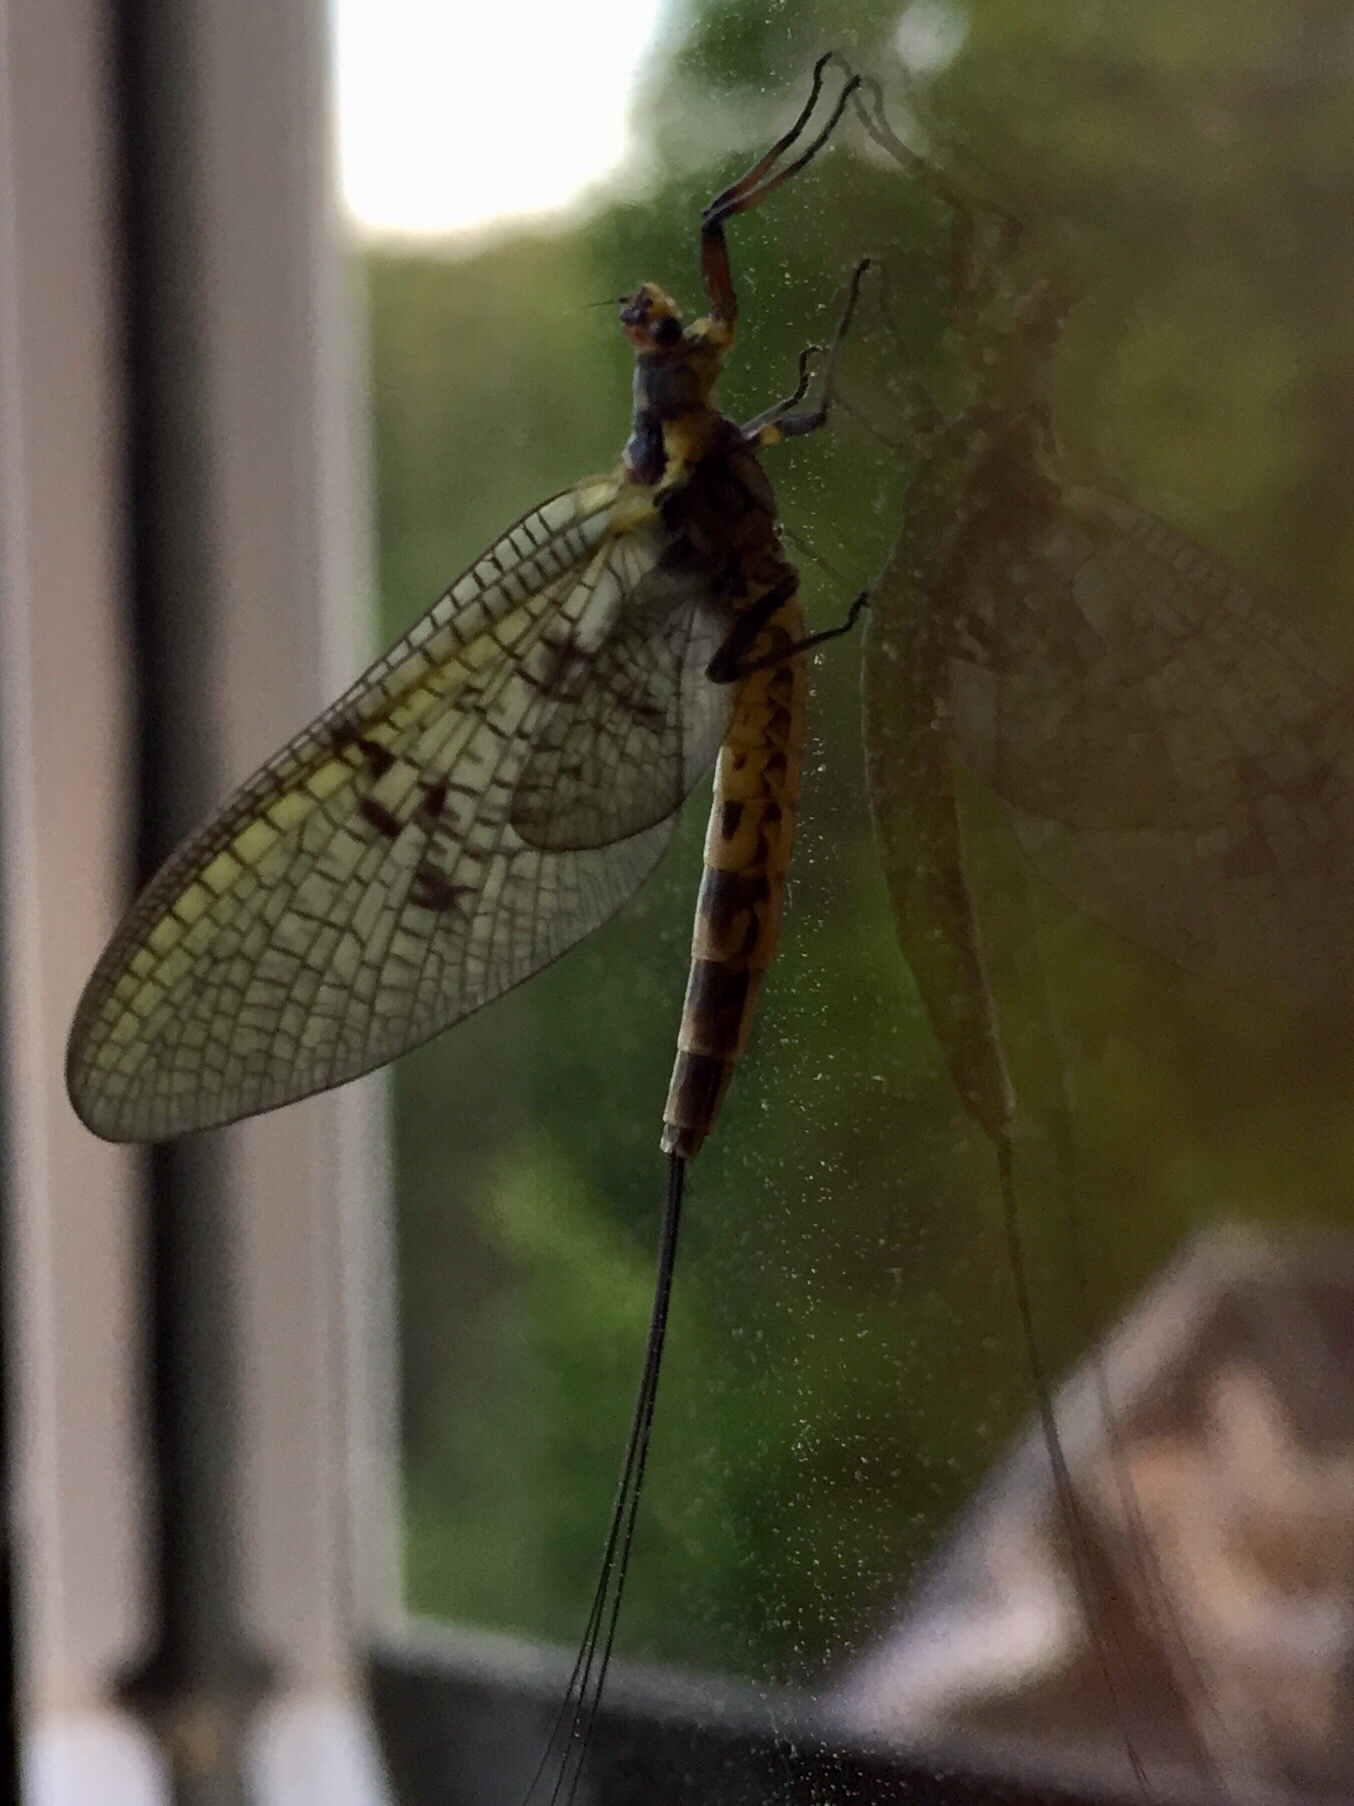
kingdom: Animalia
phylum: Arthropoda
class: Insecta
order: Ephemeroptera
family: Ephemeridae
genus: Ephemera
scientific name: Ephemera danica
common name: Green dun
